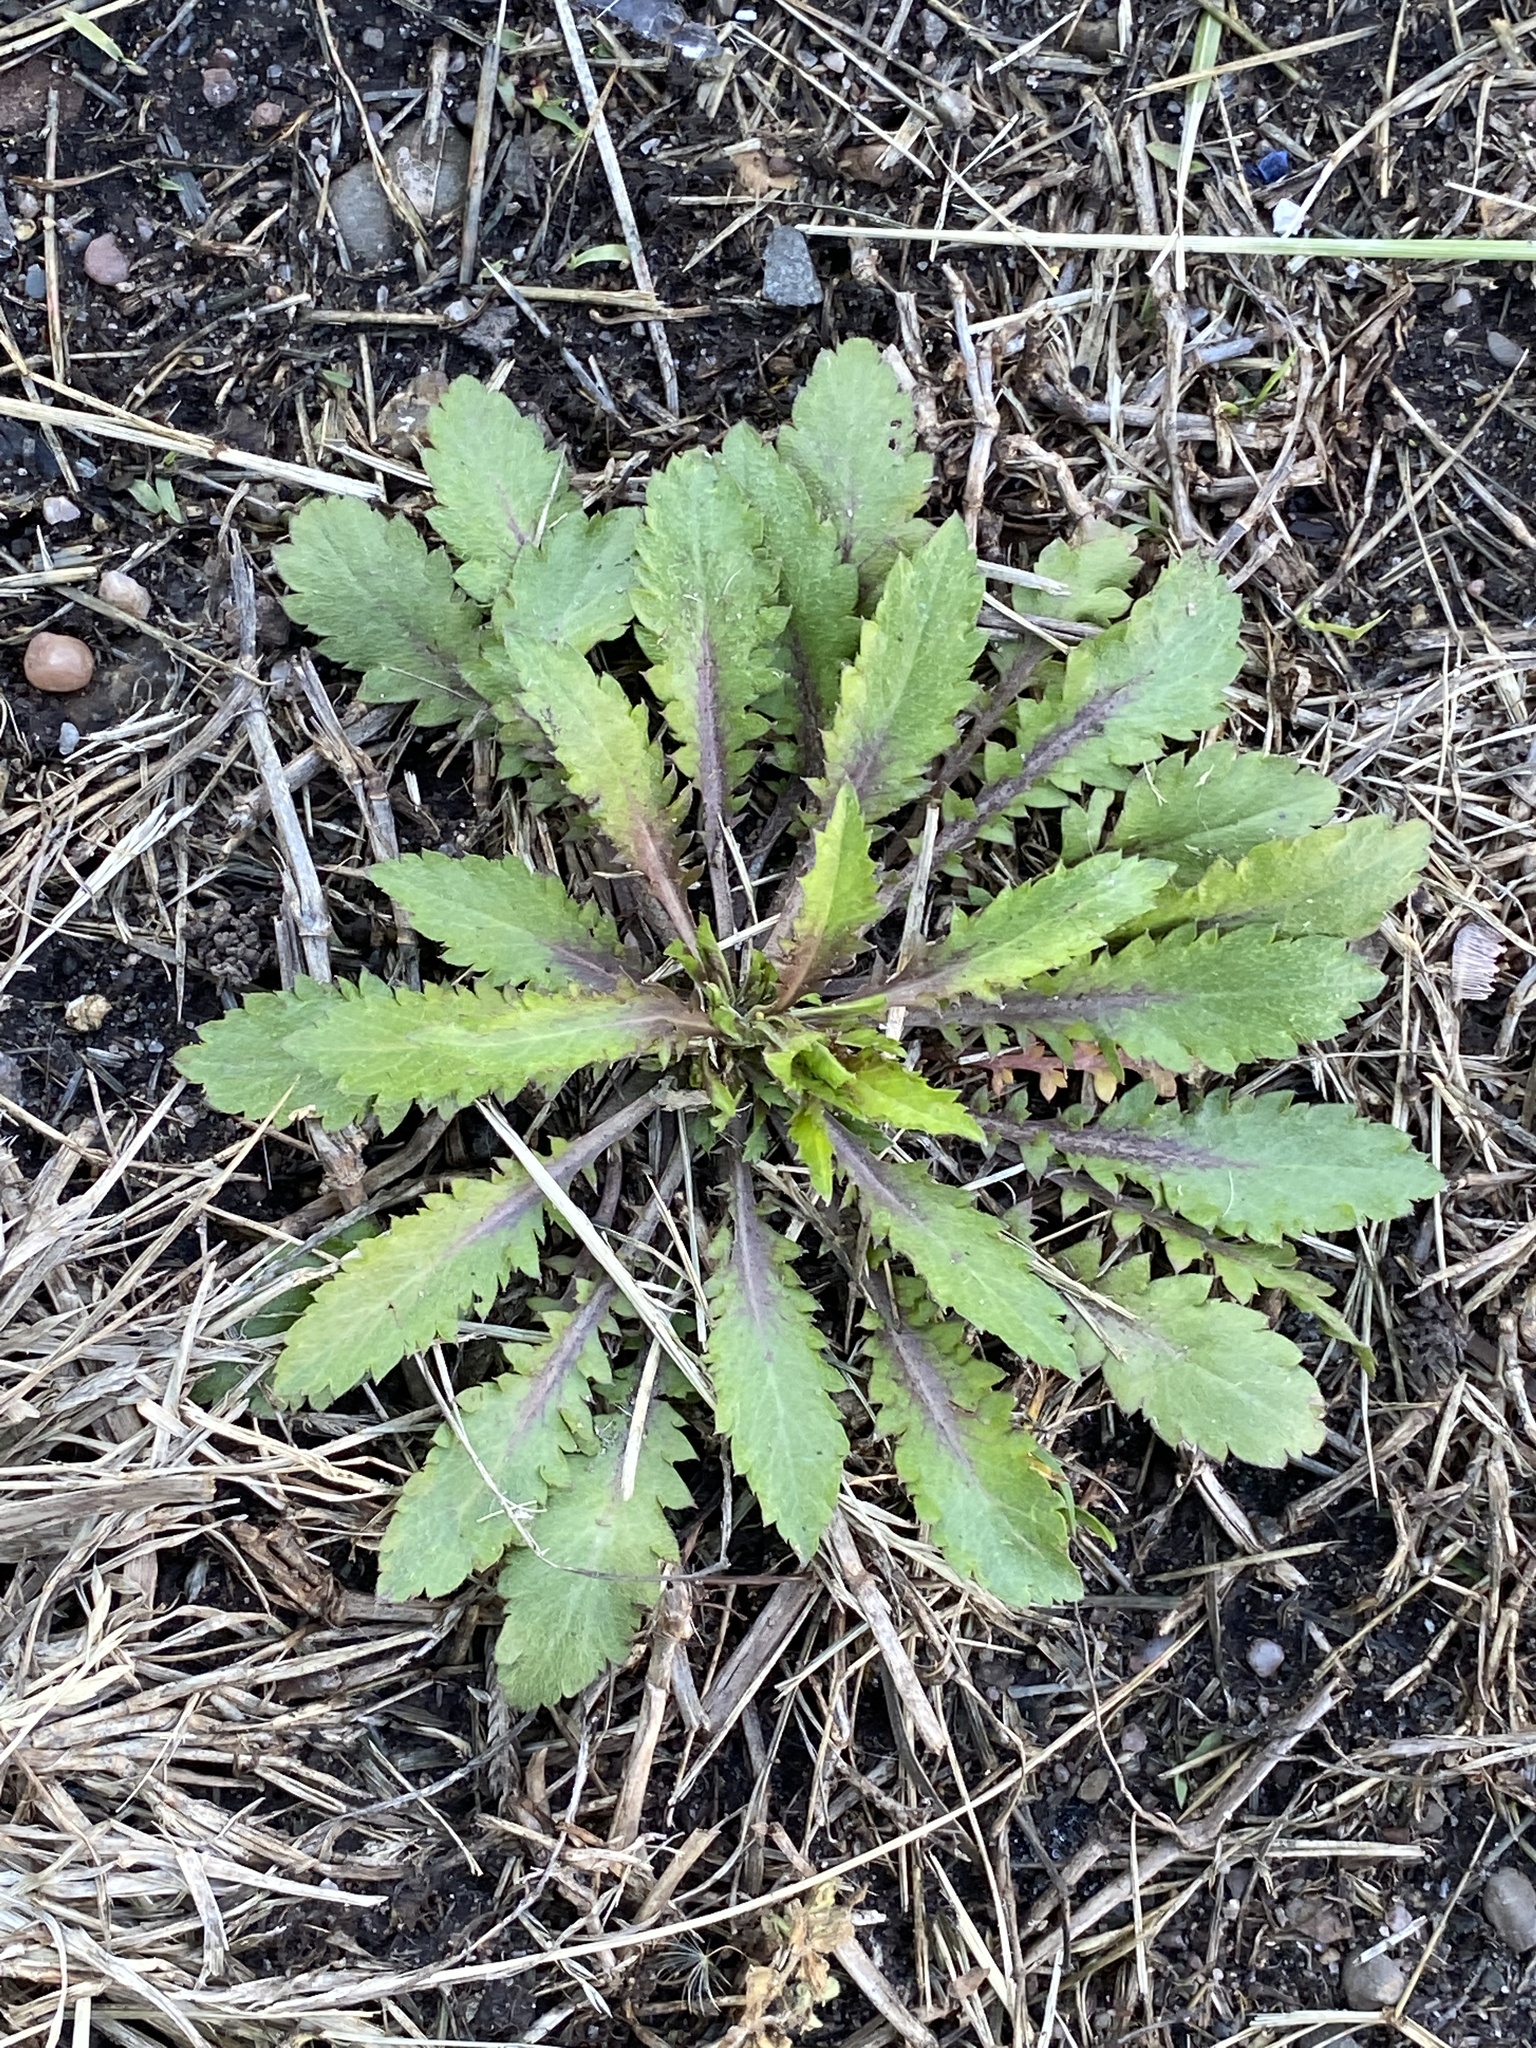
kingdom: Plantae
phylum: Tracheophyta
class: Magnoliopsida
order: Brassicales
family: Brassicaceae
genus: Lepidium
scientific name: Lepidium virginicum
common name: Least pepperwort
